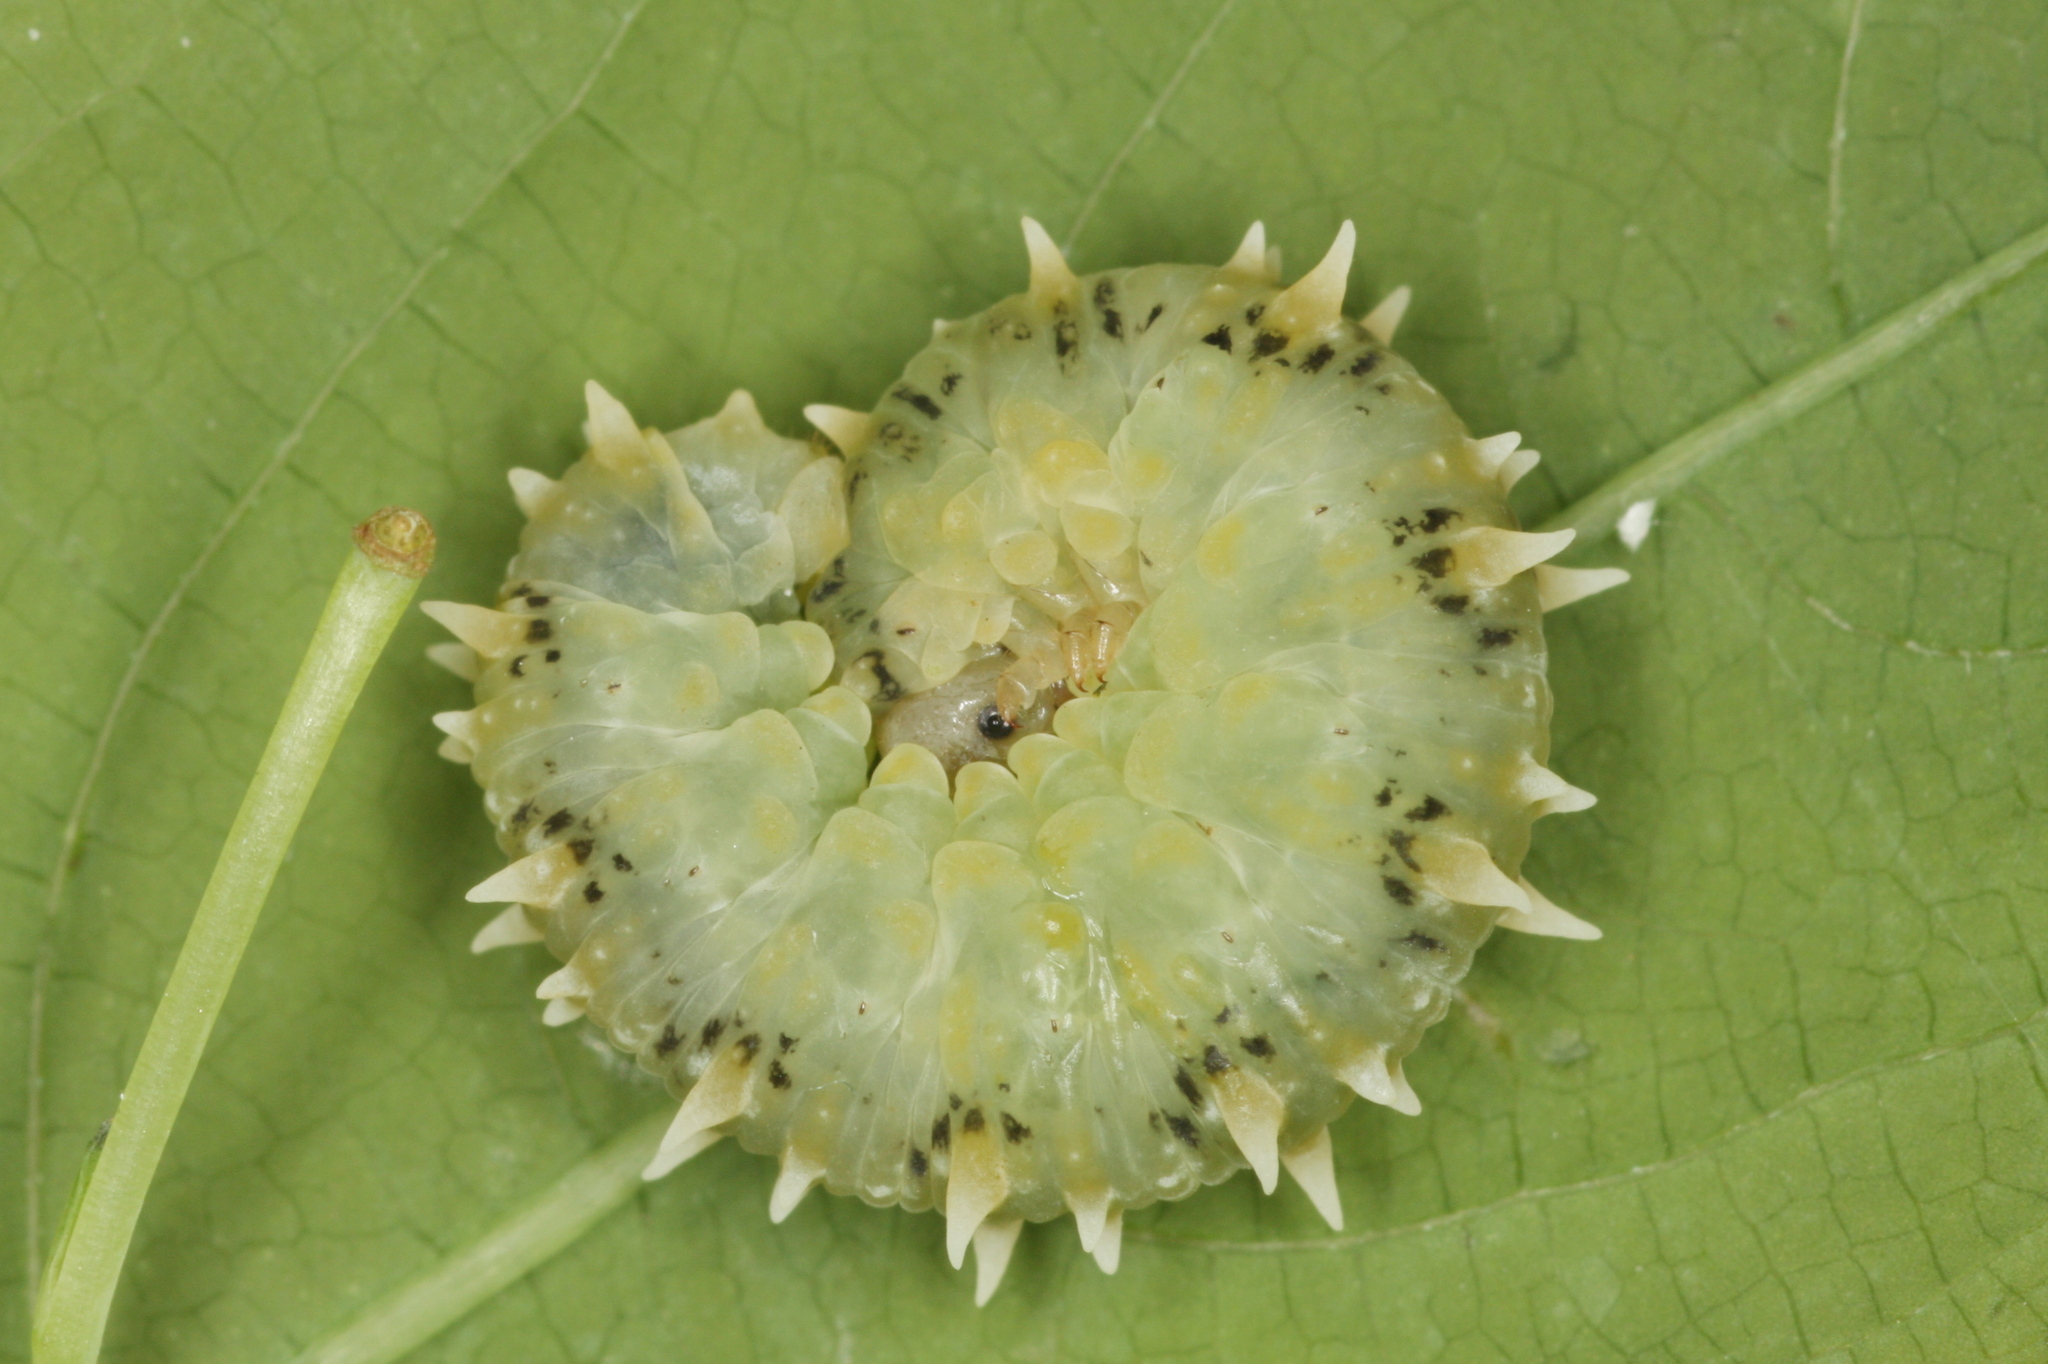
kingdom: Animalia
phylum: Arthropoda
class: Insecta
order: Hymenoptera
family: Tenthredinidae
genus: Siobla
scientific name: Siobla sturmii
